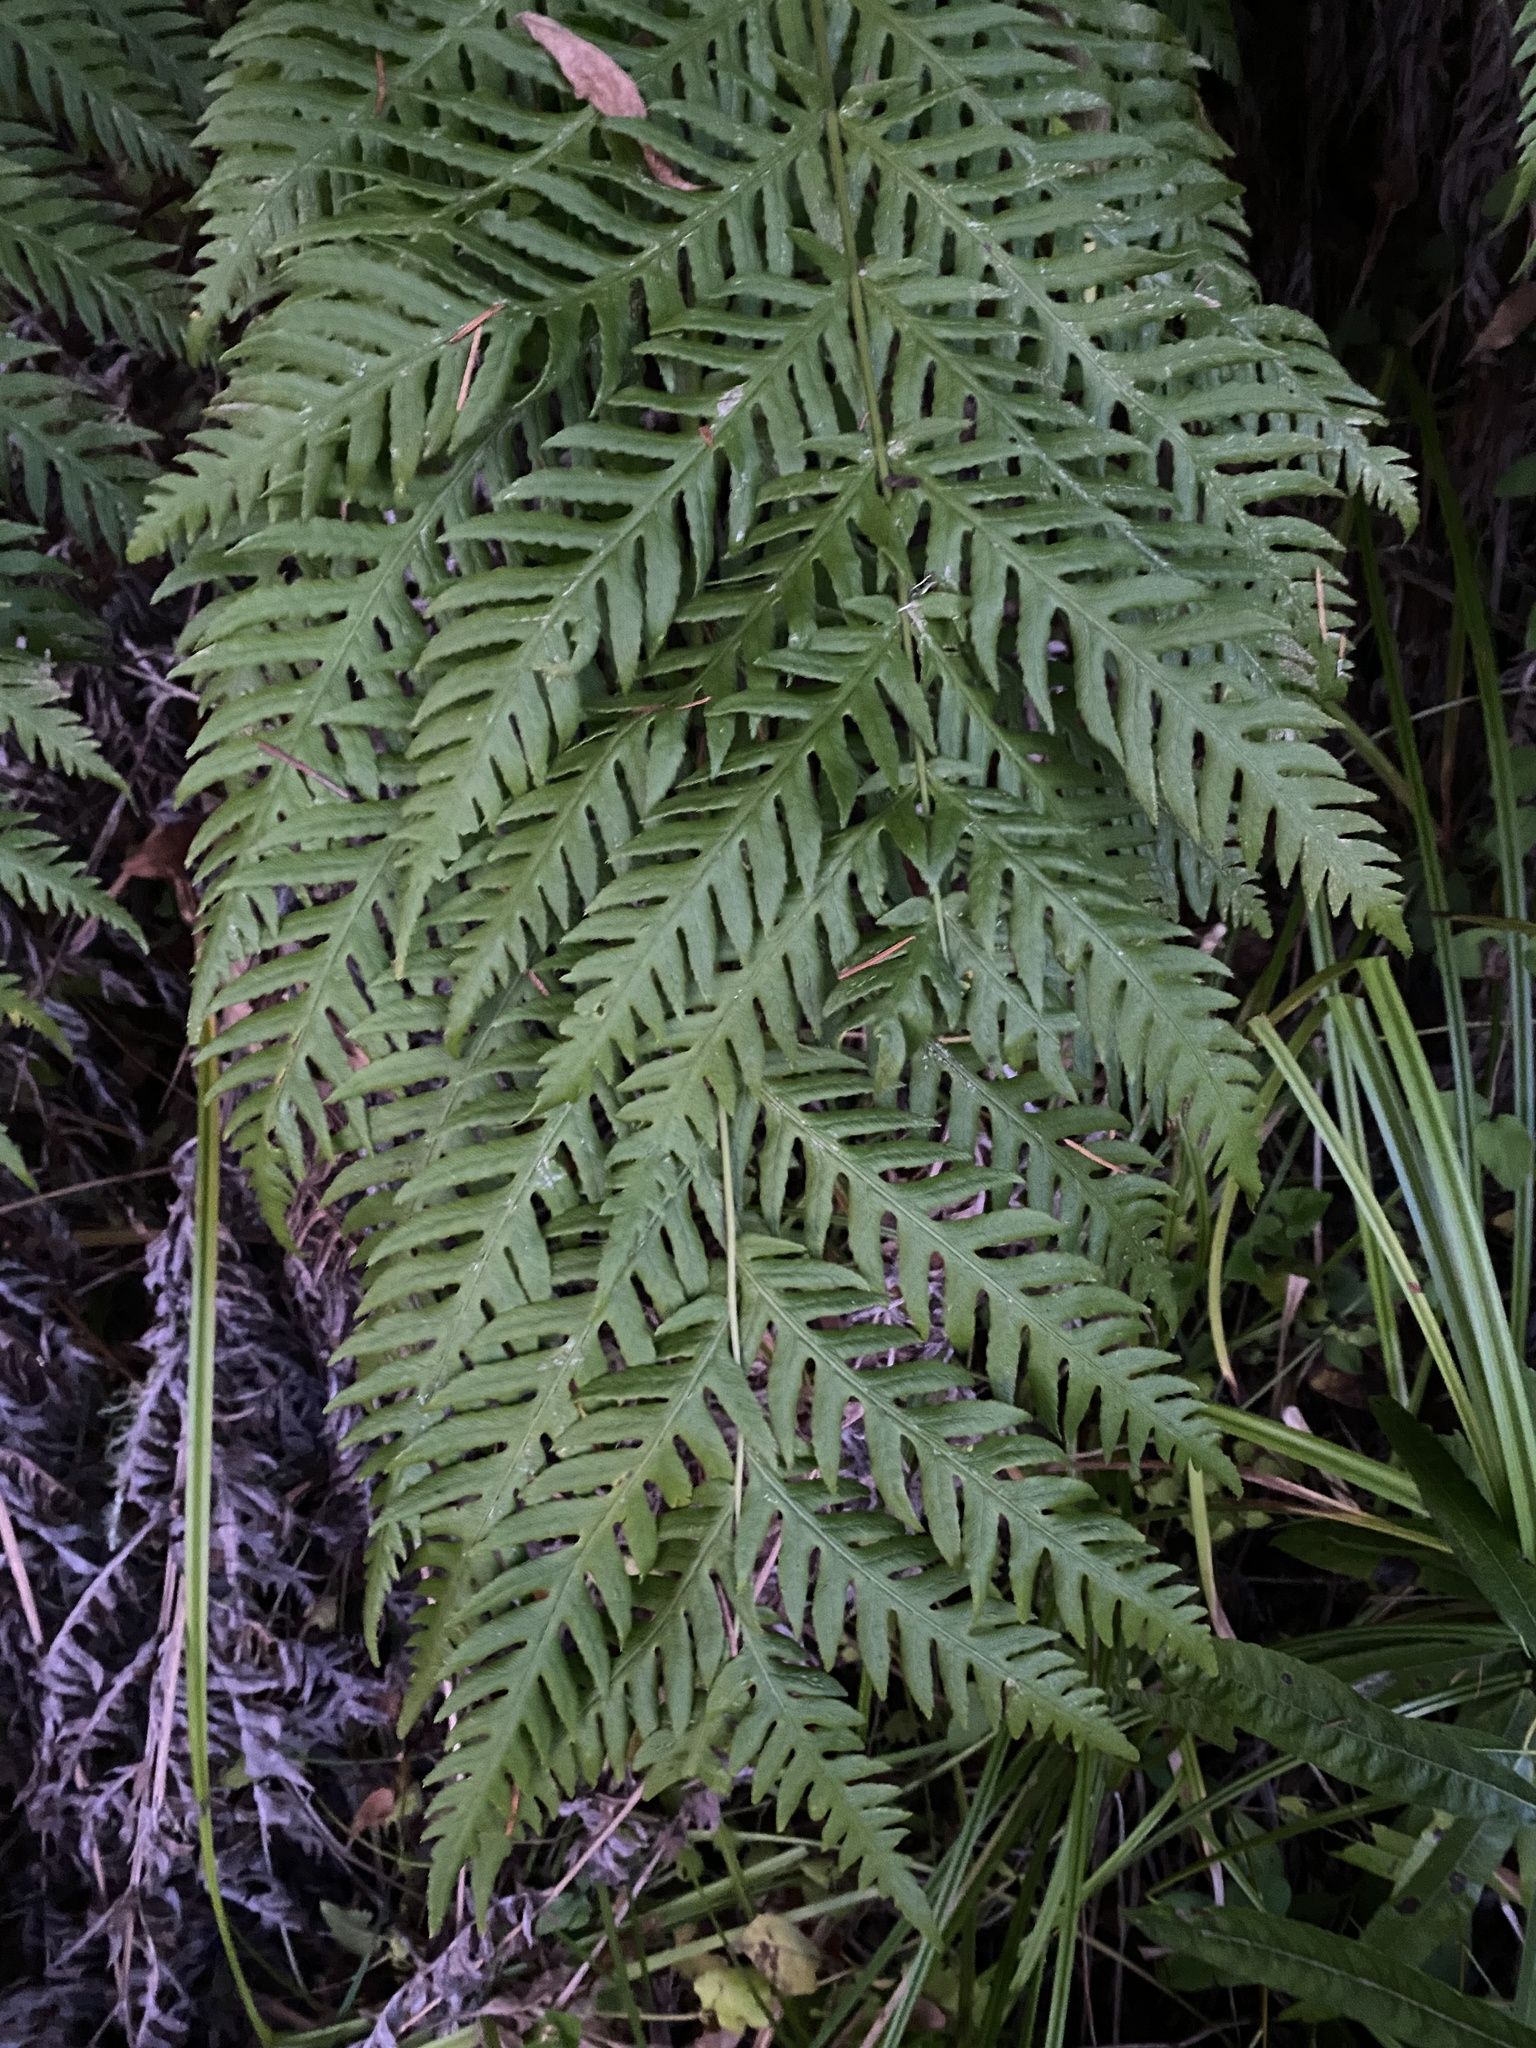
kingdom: Plantae
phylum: Tracheophyta
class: Polypodiopsida
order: Polypodiales
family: Blechnaceae
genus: Woodwardia
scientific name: Woodwardia fimbriata
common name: Giant chain fern
